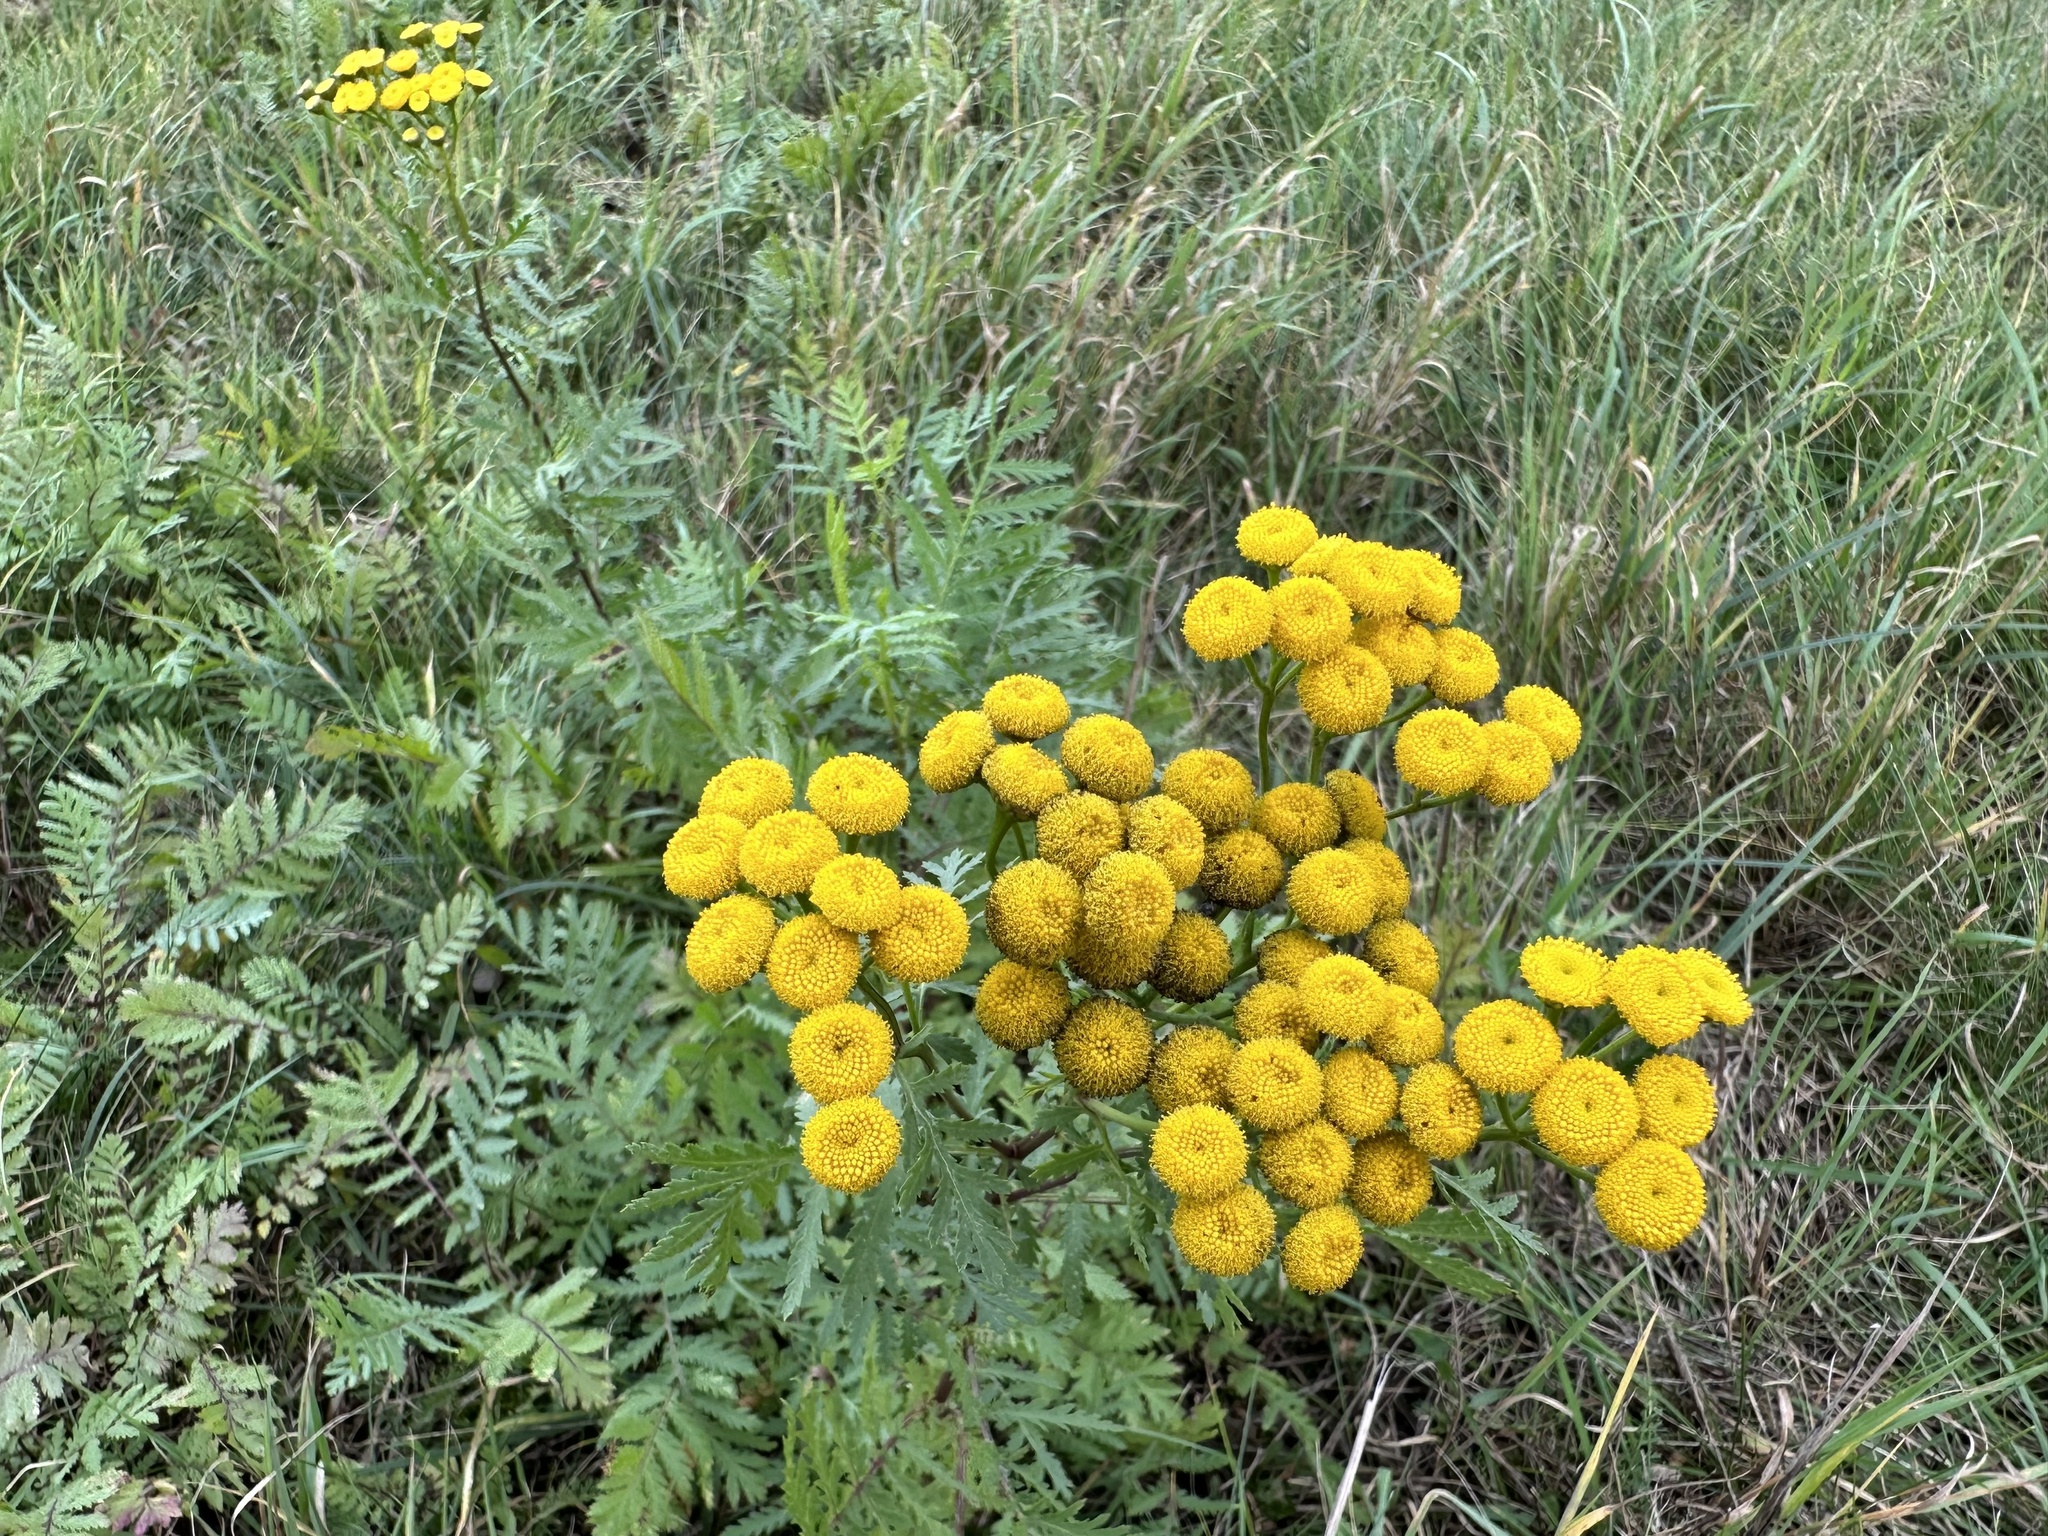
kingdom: Plantae
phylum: Tracheophyta
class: Magnoliopsida
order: Asterales
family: Asteraceae
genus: Tanacetum
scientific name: Tanacetum vulgare
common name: Common tansy
